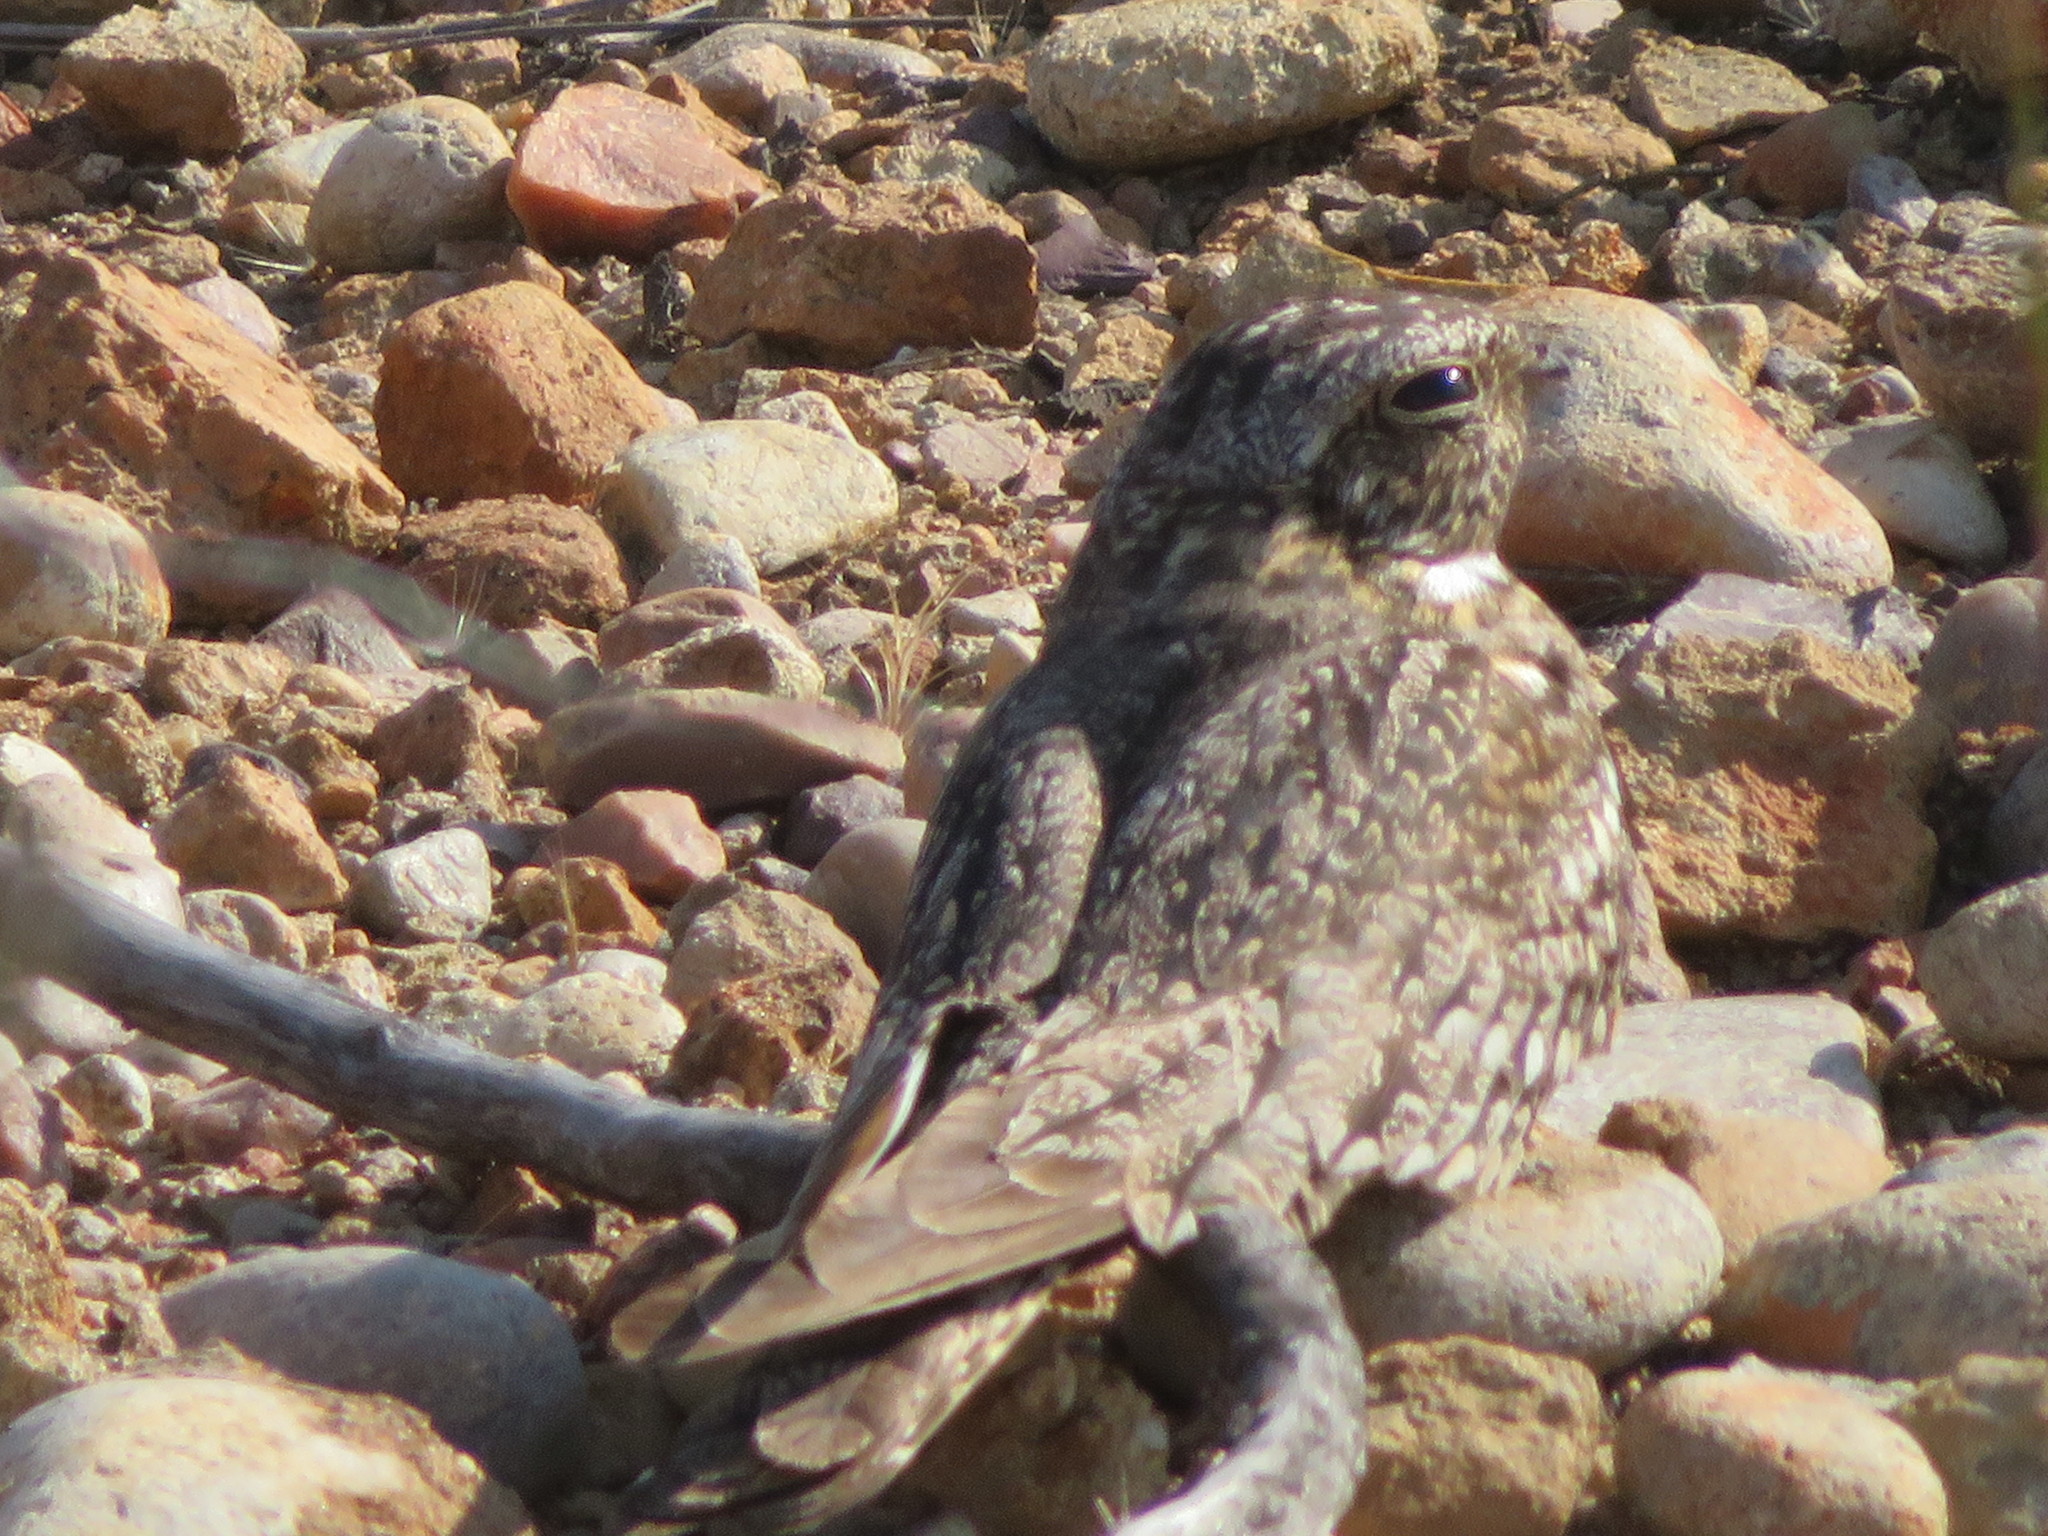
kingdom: Animalia
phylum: Chordata
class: Aves
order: Caprimulgiformes
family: Caprimulgidae
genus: Chordeiles
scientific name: Chordeiles acutipennis
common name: Lesser nighthawk
